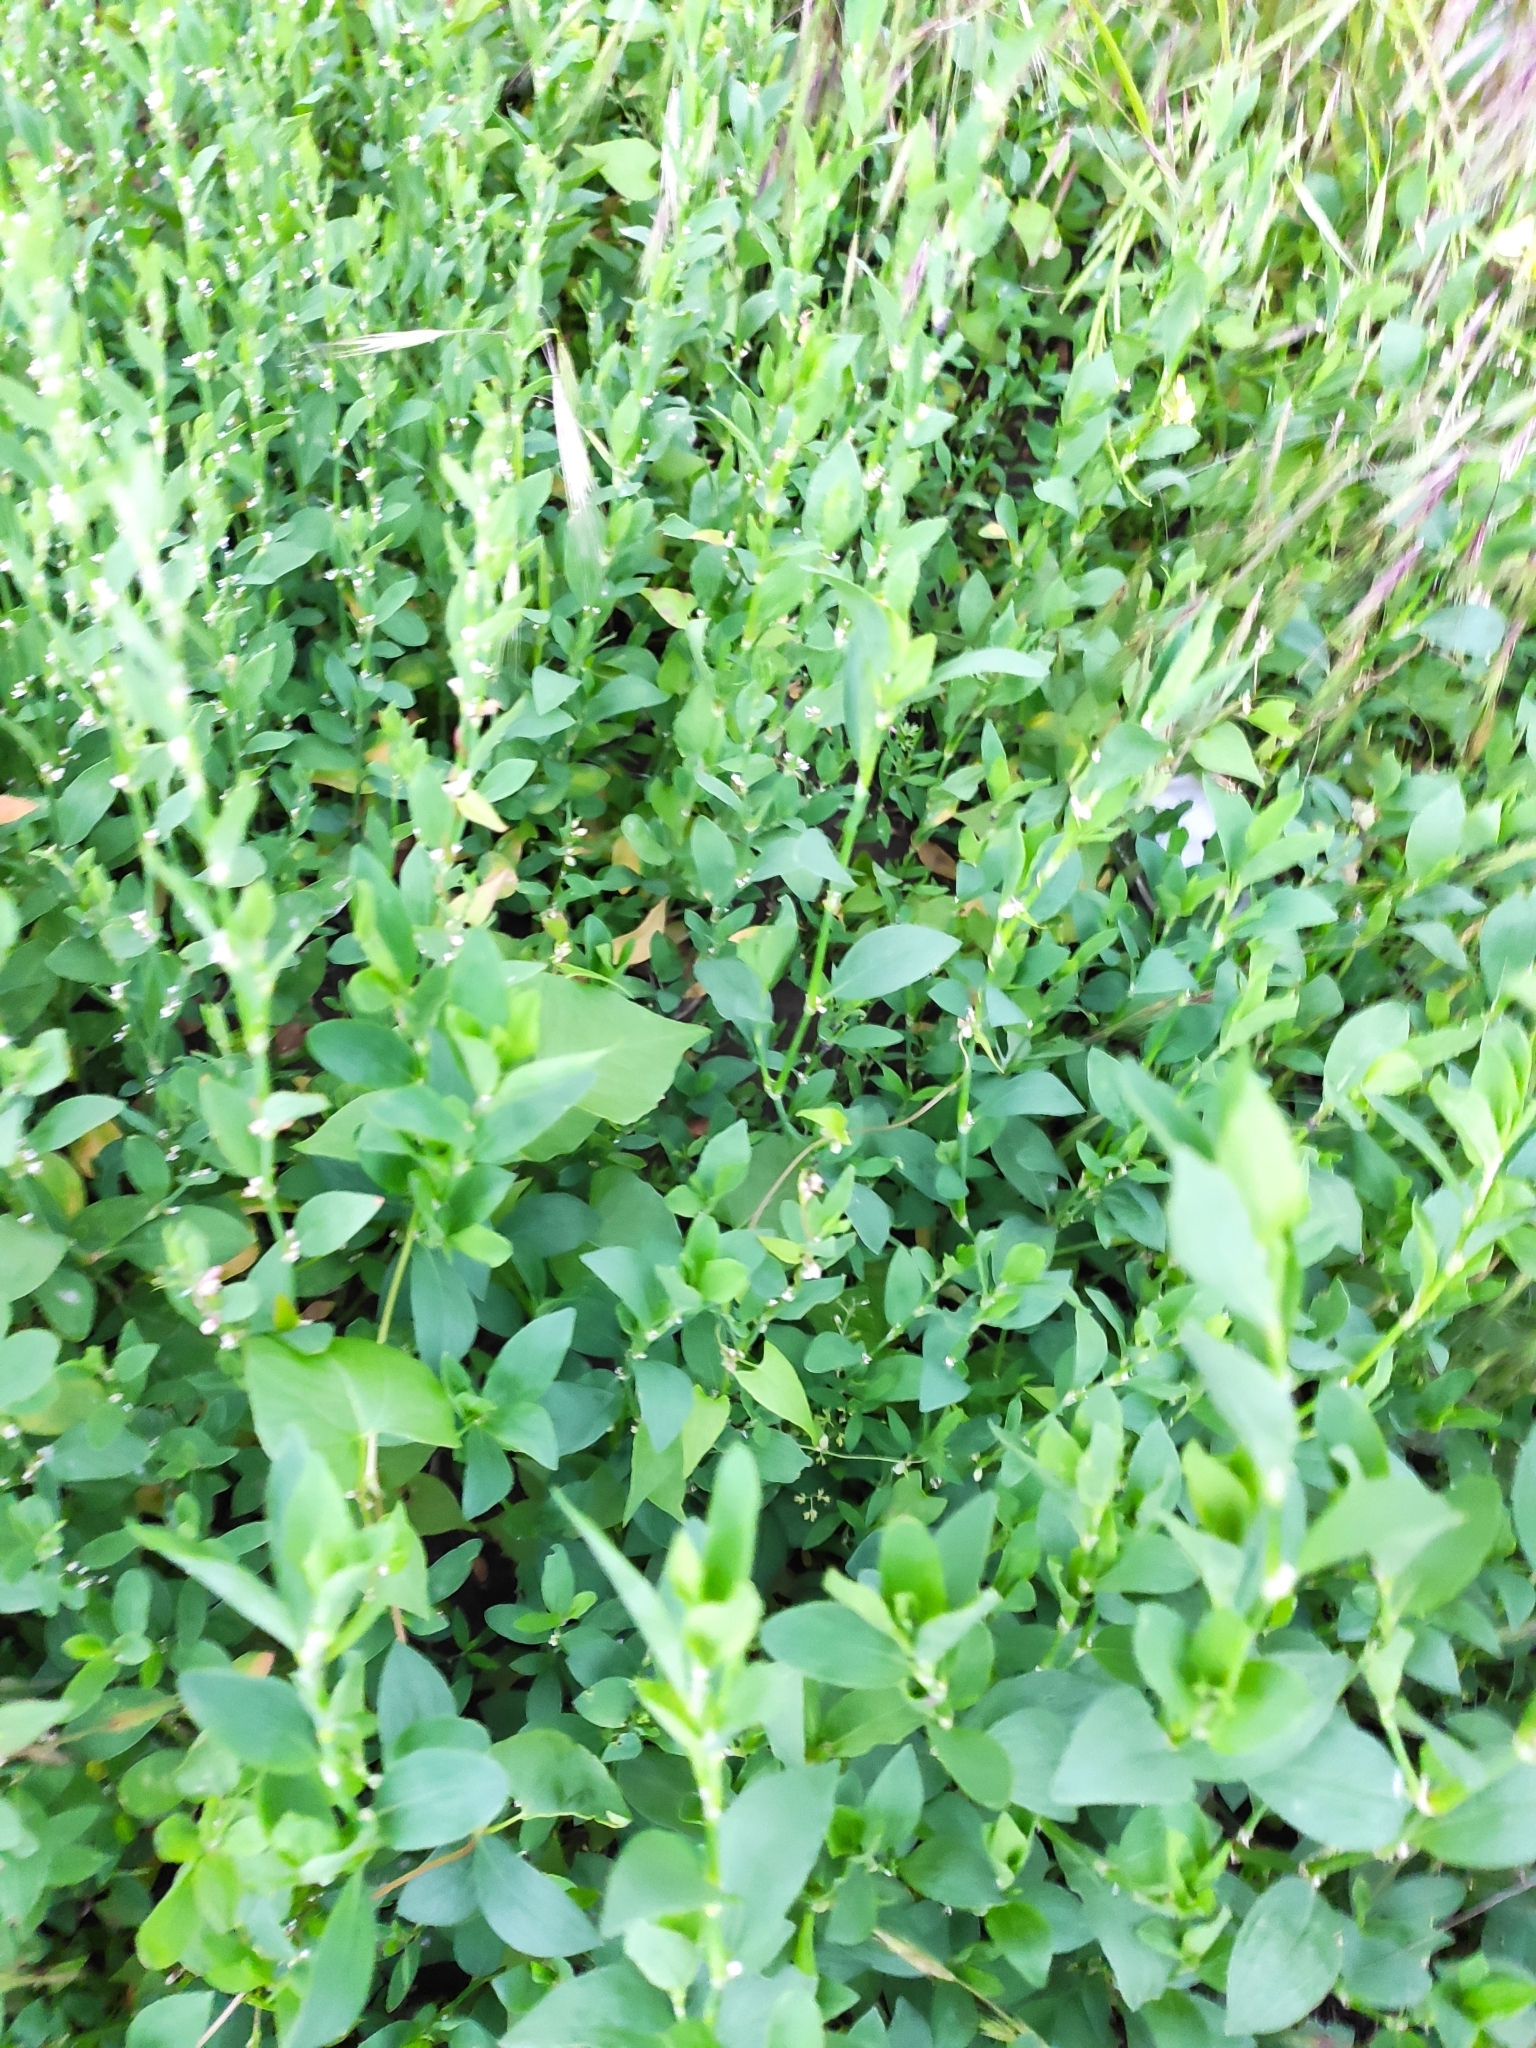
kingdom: Plantae
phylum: Tracheophyta
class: Magnoliopsida
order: Caryophyllales
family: Polygonaceae
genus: Polygonum
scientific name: Polygonum
